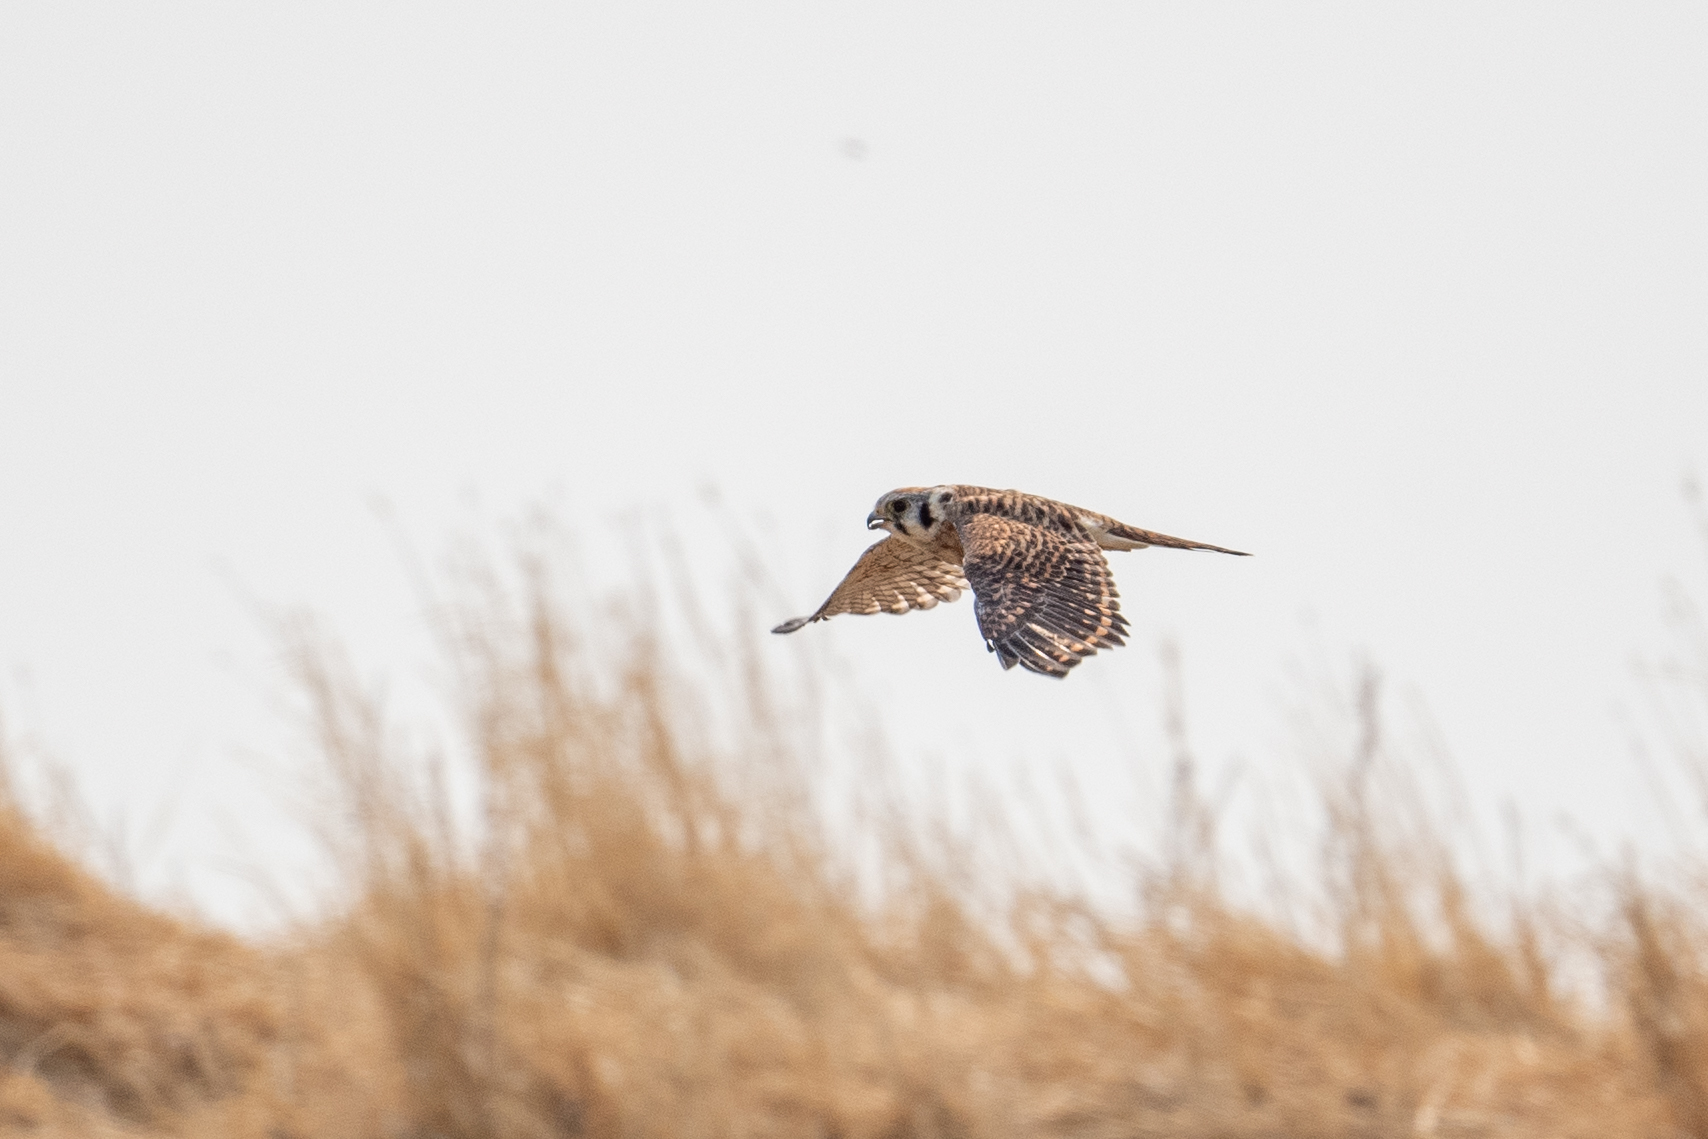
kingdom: Animalia
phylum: Chordata
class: Aves
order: Falconiformes
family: Falconidae
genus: Falco
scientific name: Falco sparverius
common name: American kestrel
